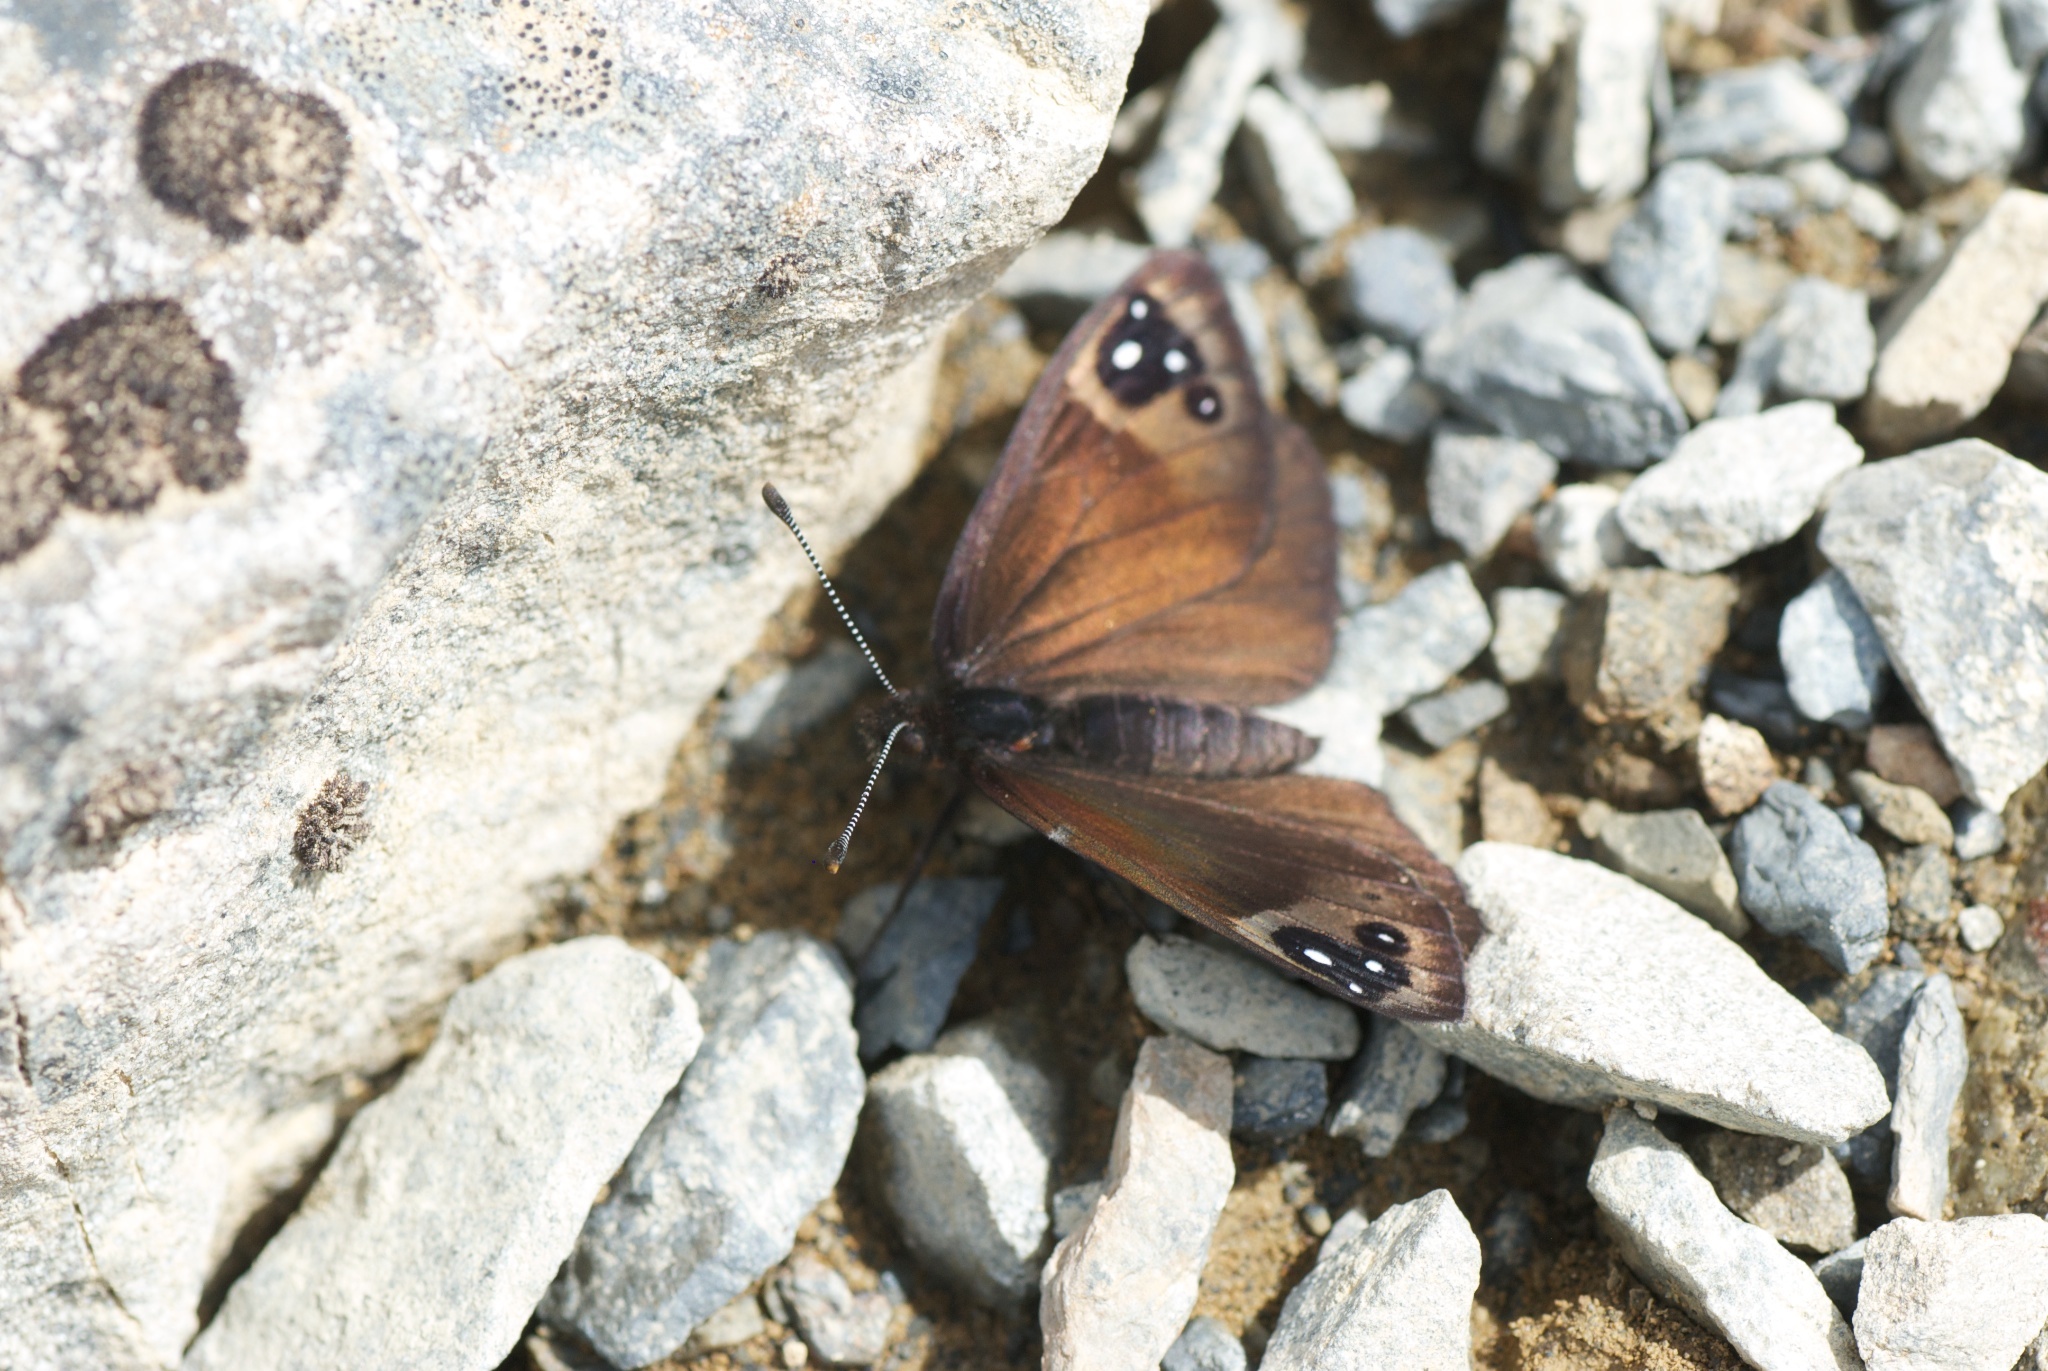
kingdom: Animalia
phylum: Arthropoda
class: Insecta
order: Lepidoptera
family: Nymphalidae
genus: Erebia
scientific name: Erebia Percnodaimon merula
